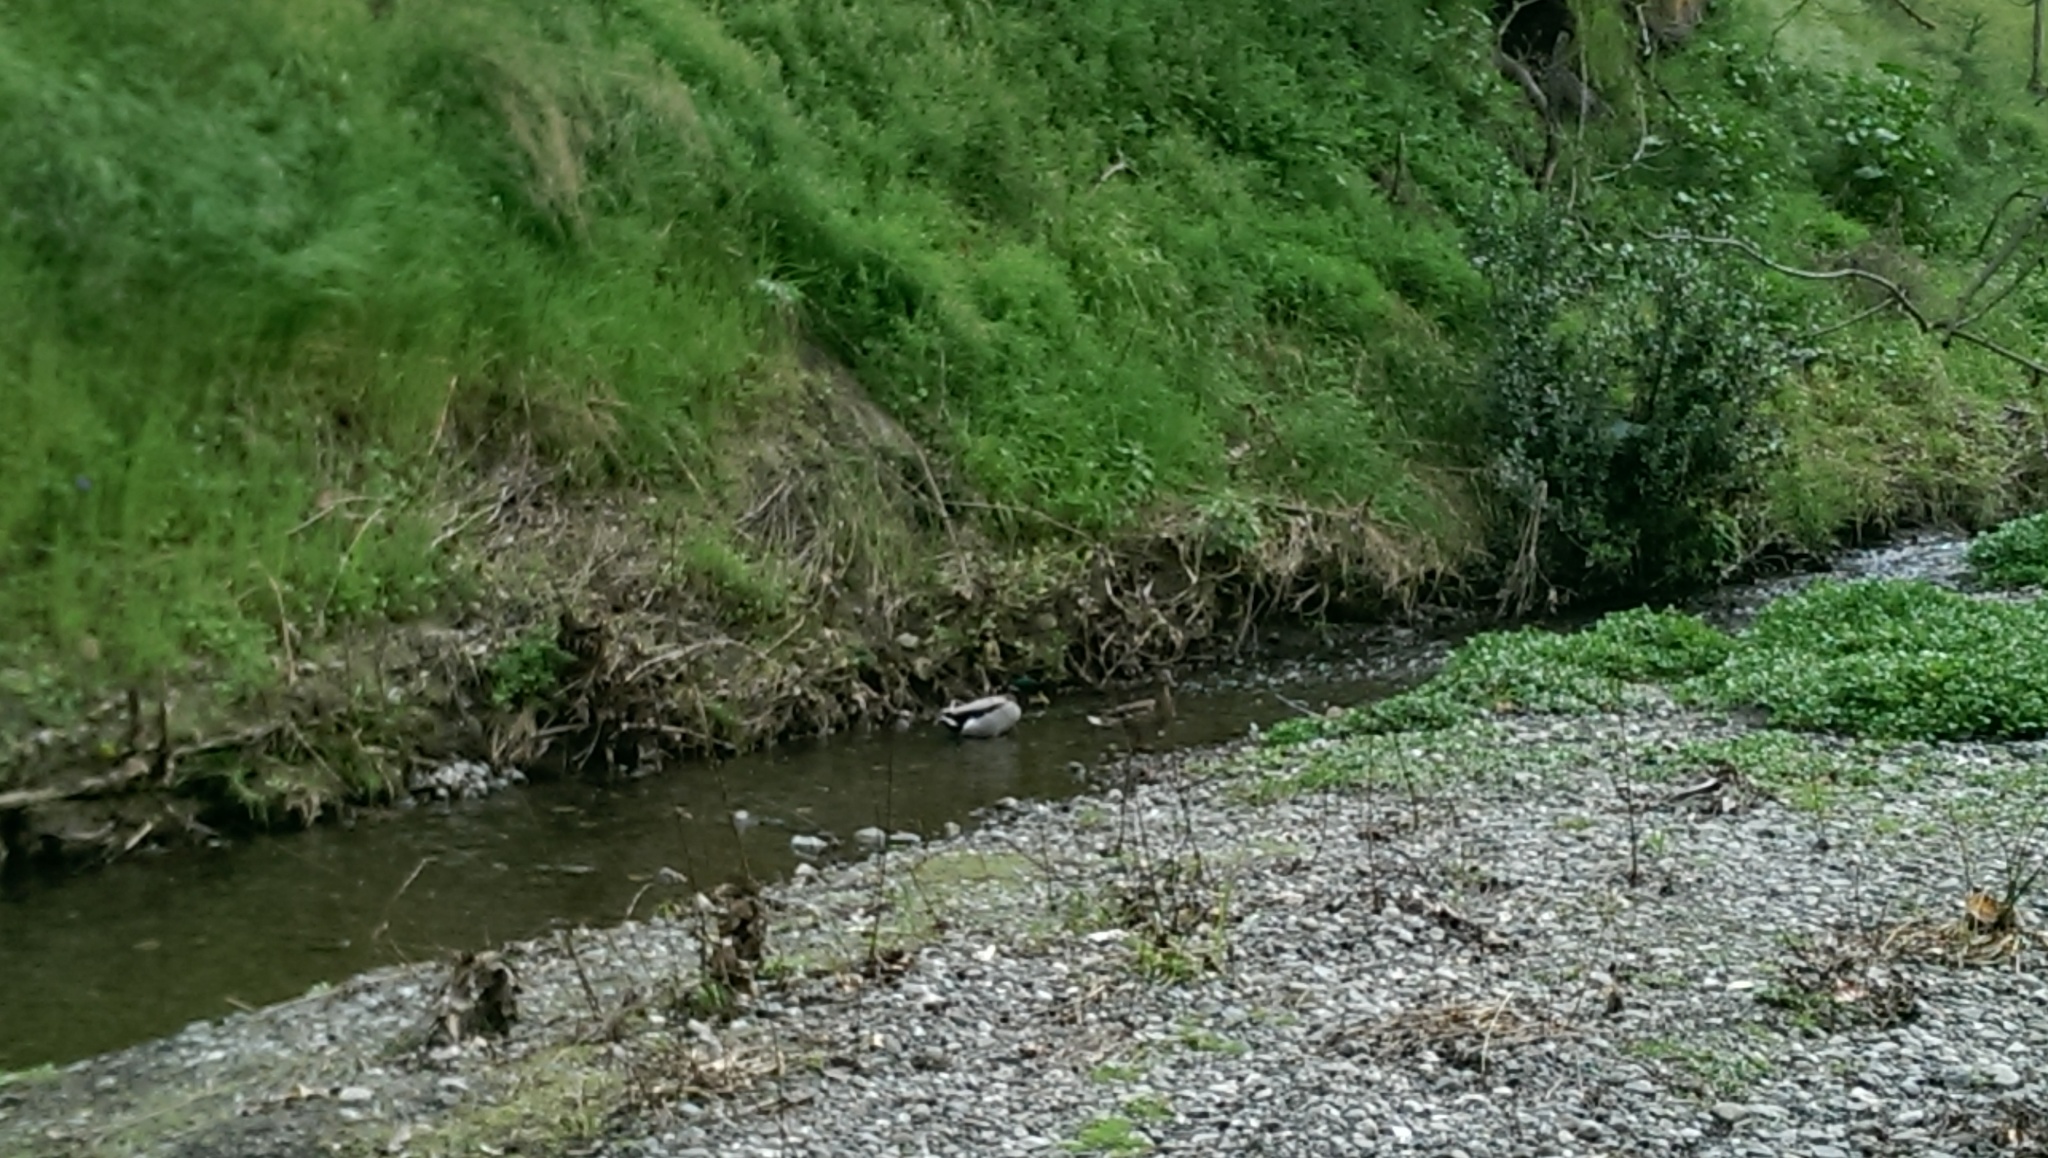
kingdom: Animalia
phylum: Chordata
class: Aves
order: Anseriformes
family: Anatidae
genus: Anas
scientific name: Anas platyrhynchos
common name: Mallard
